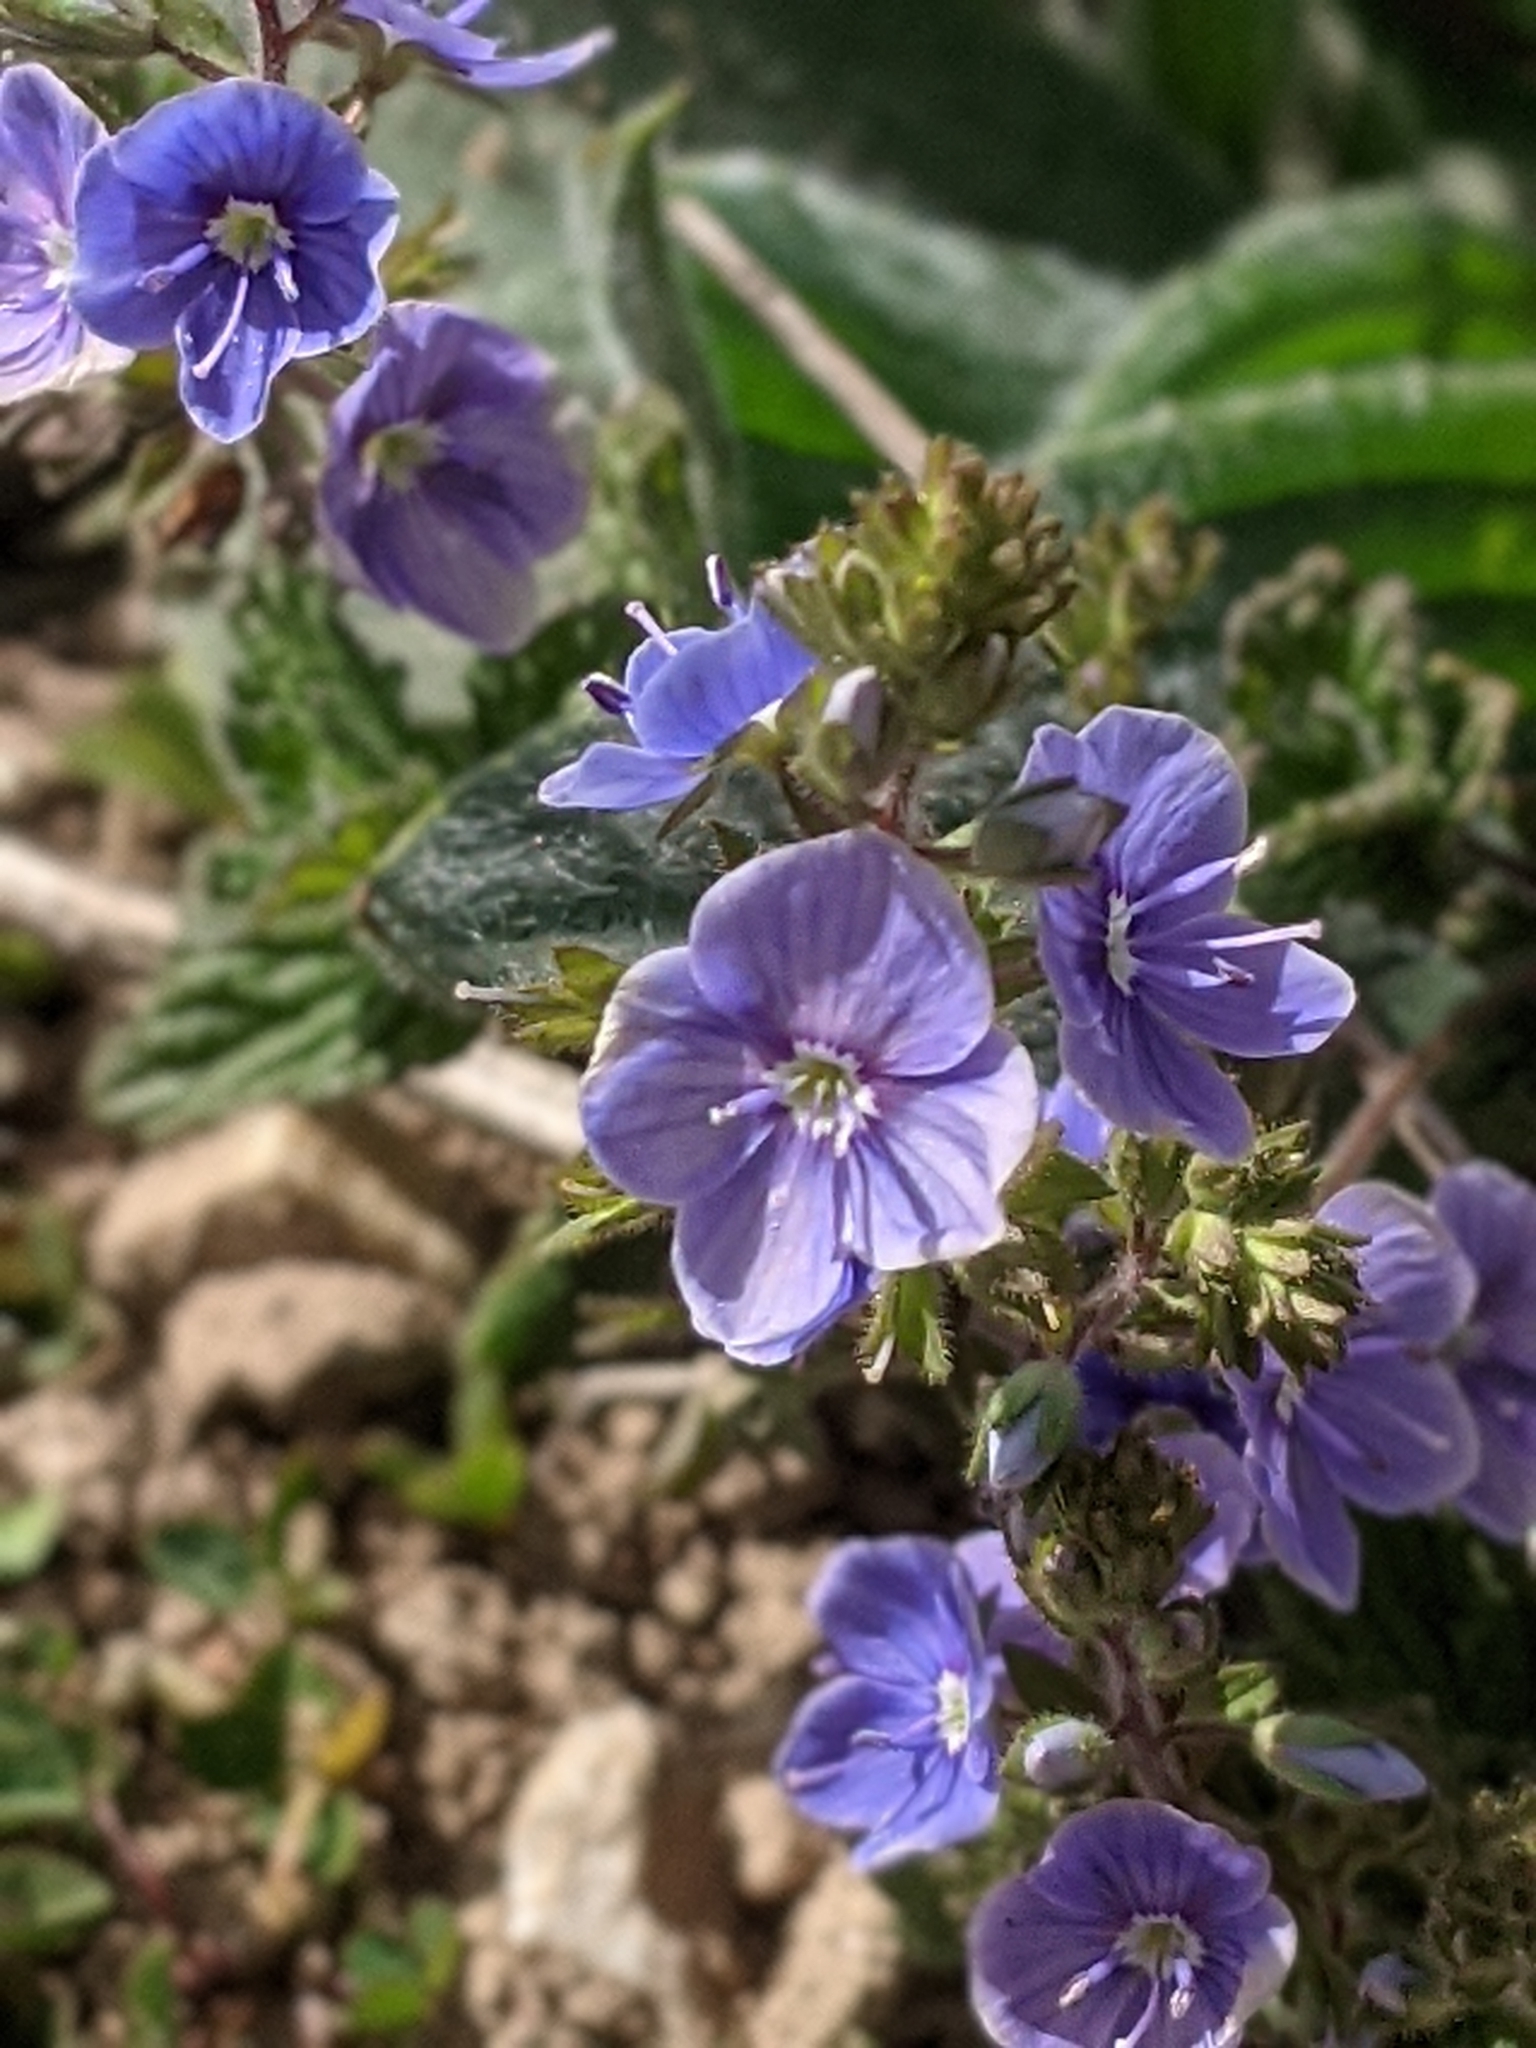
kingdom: Plantae
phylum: Tracheophyta
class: Magnoliopsida
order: Lamiales
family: Plantaginaceae
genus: Veronica
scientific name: Veronica chamaedrys
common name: Germander speedwell
